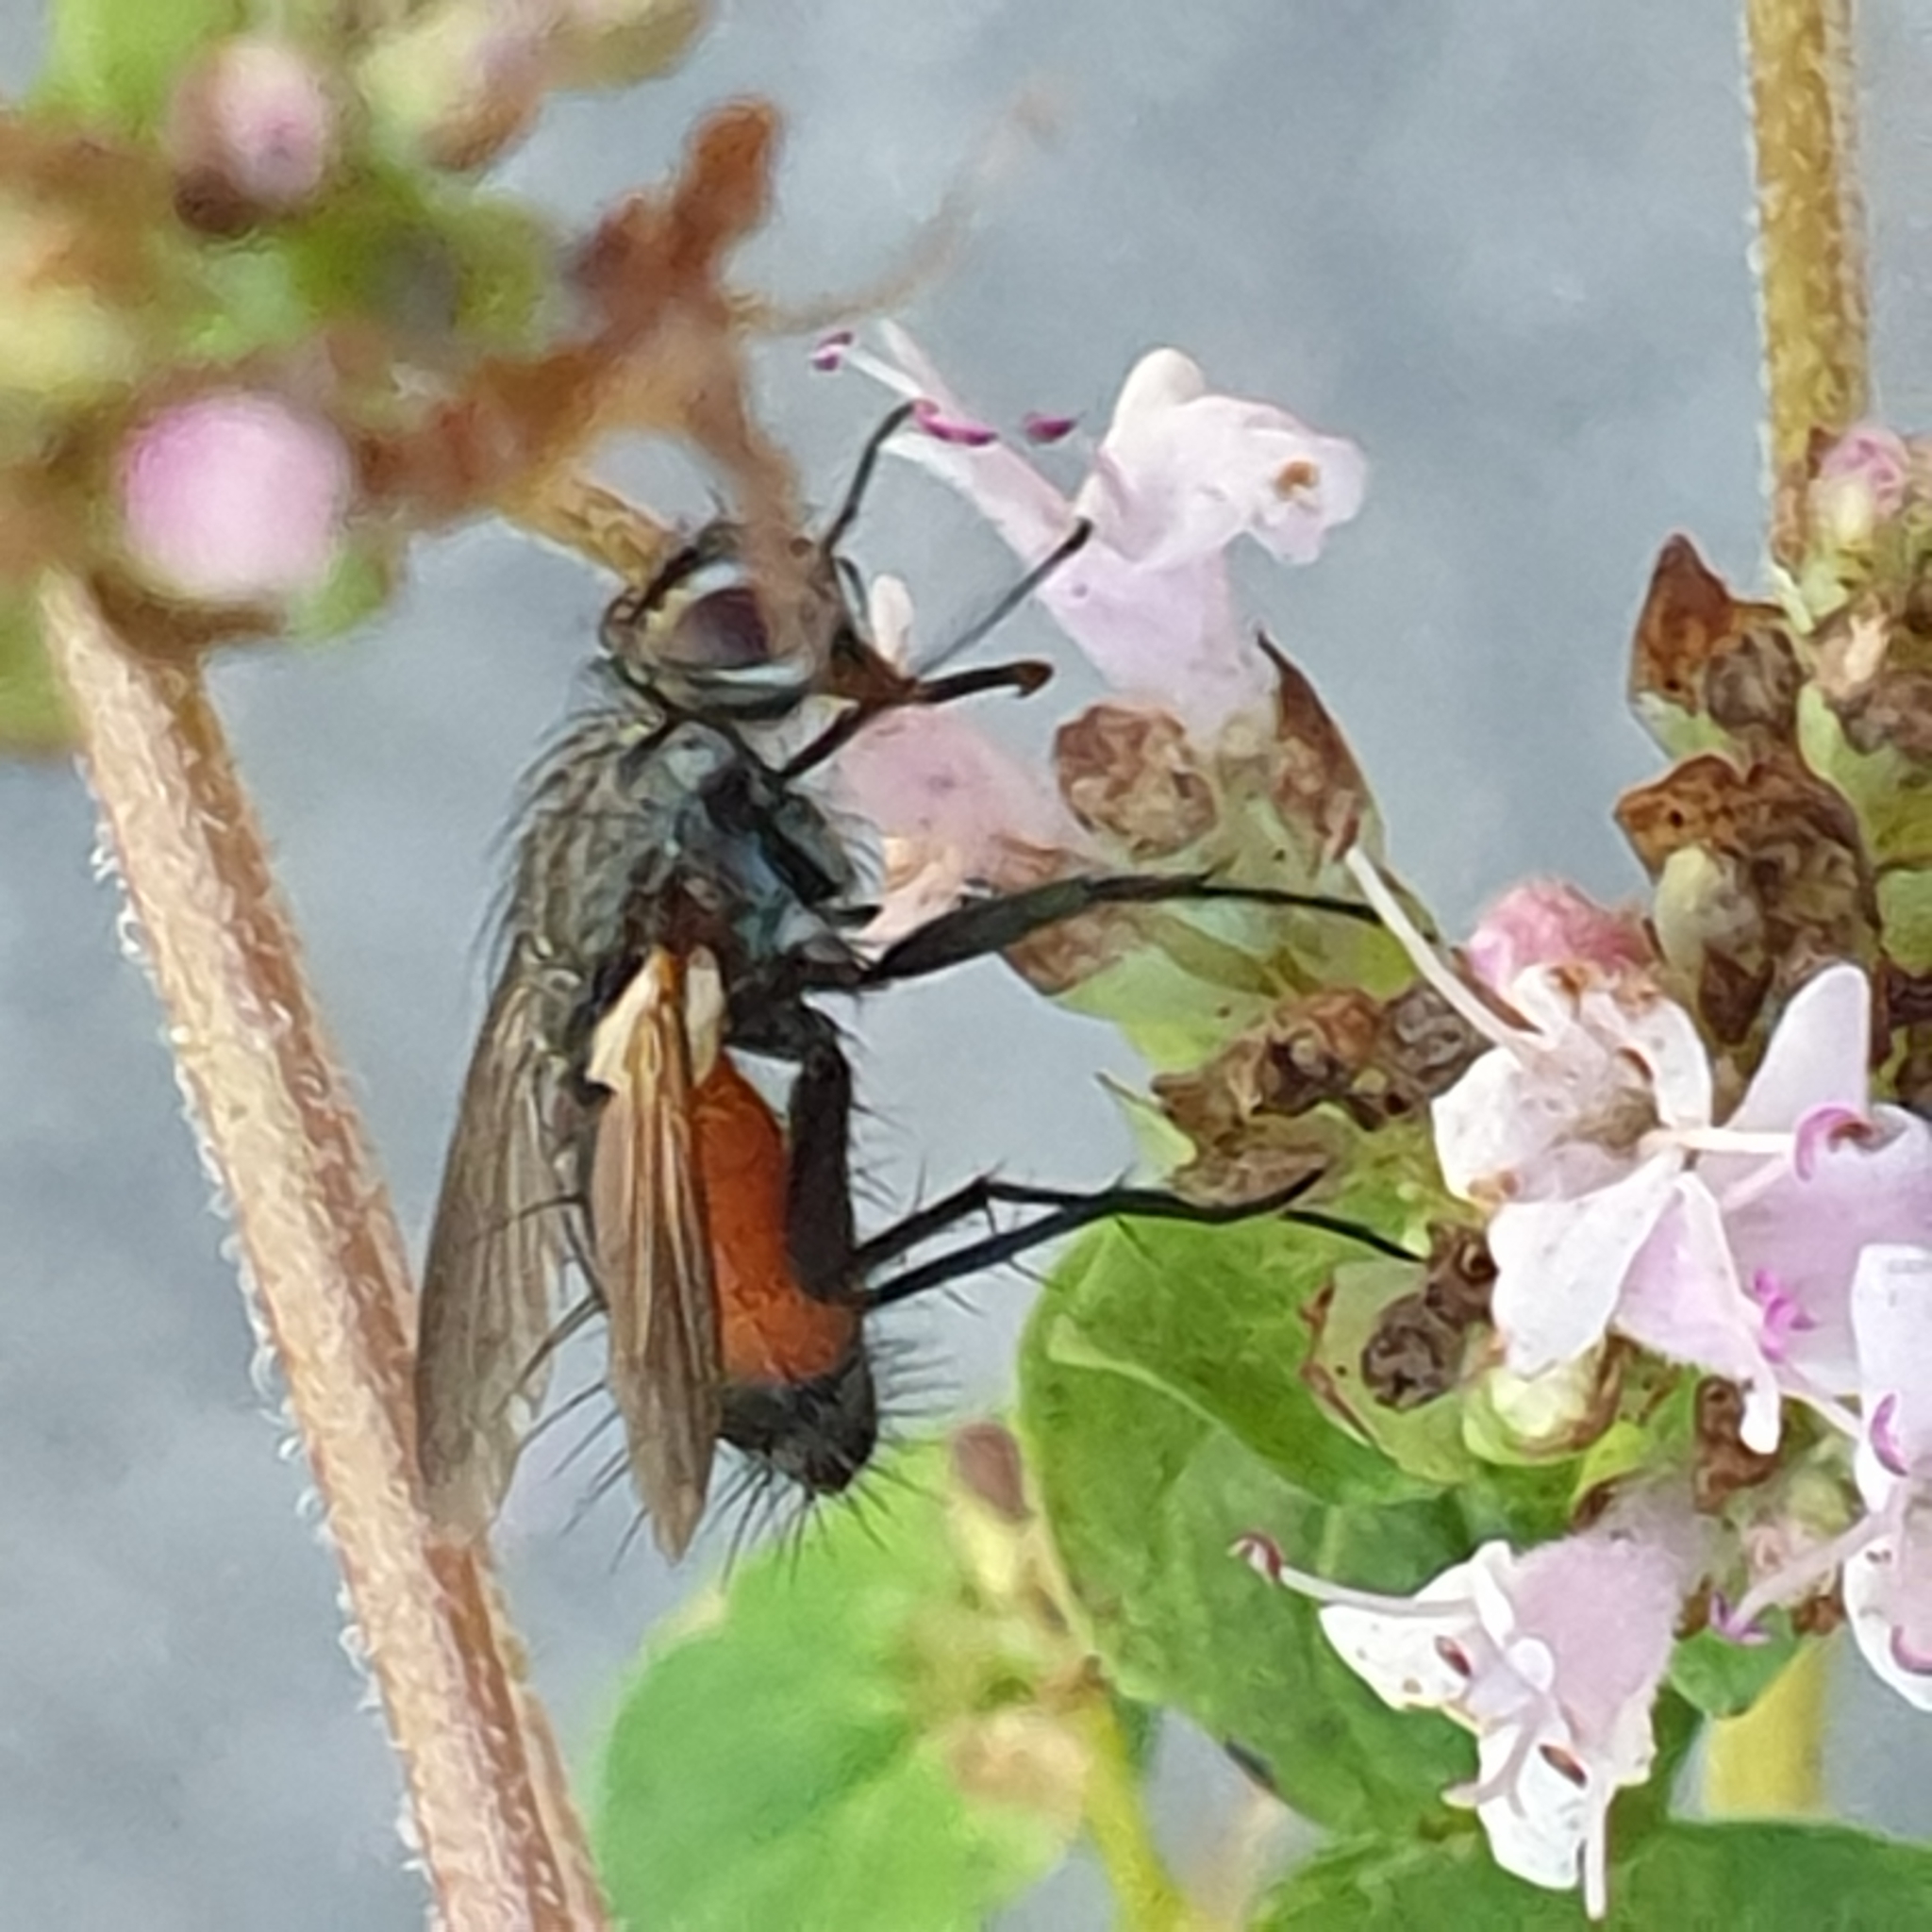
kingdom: Animalia
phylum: Arthropoda
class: Insecta
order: Diptera
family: Tachinidae
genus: Eriothrix
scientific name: Eriothrix rufomaculatus
